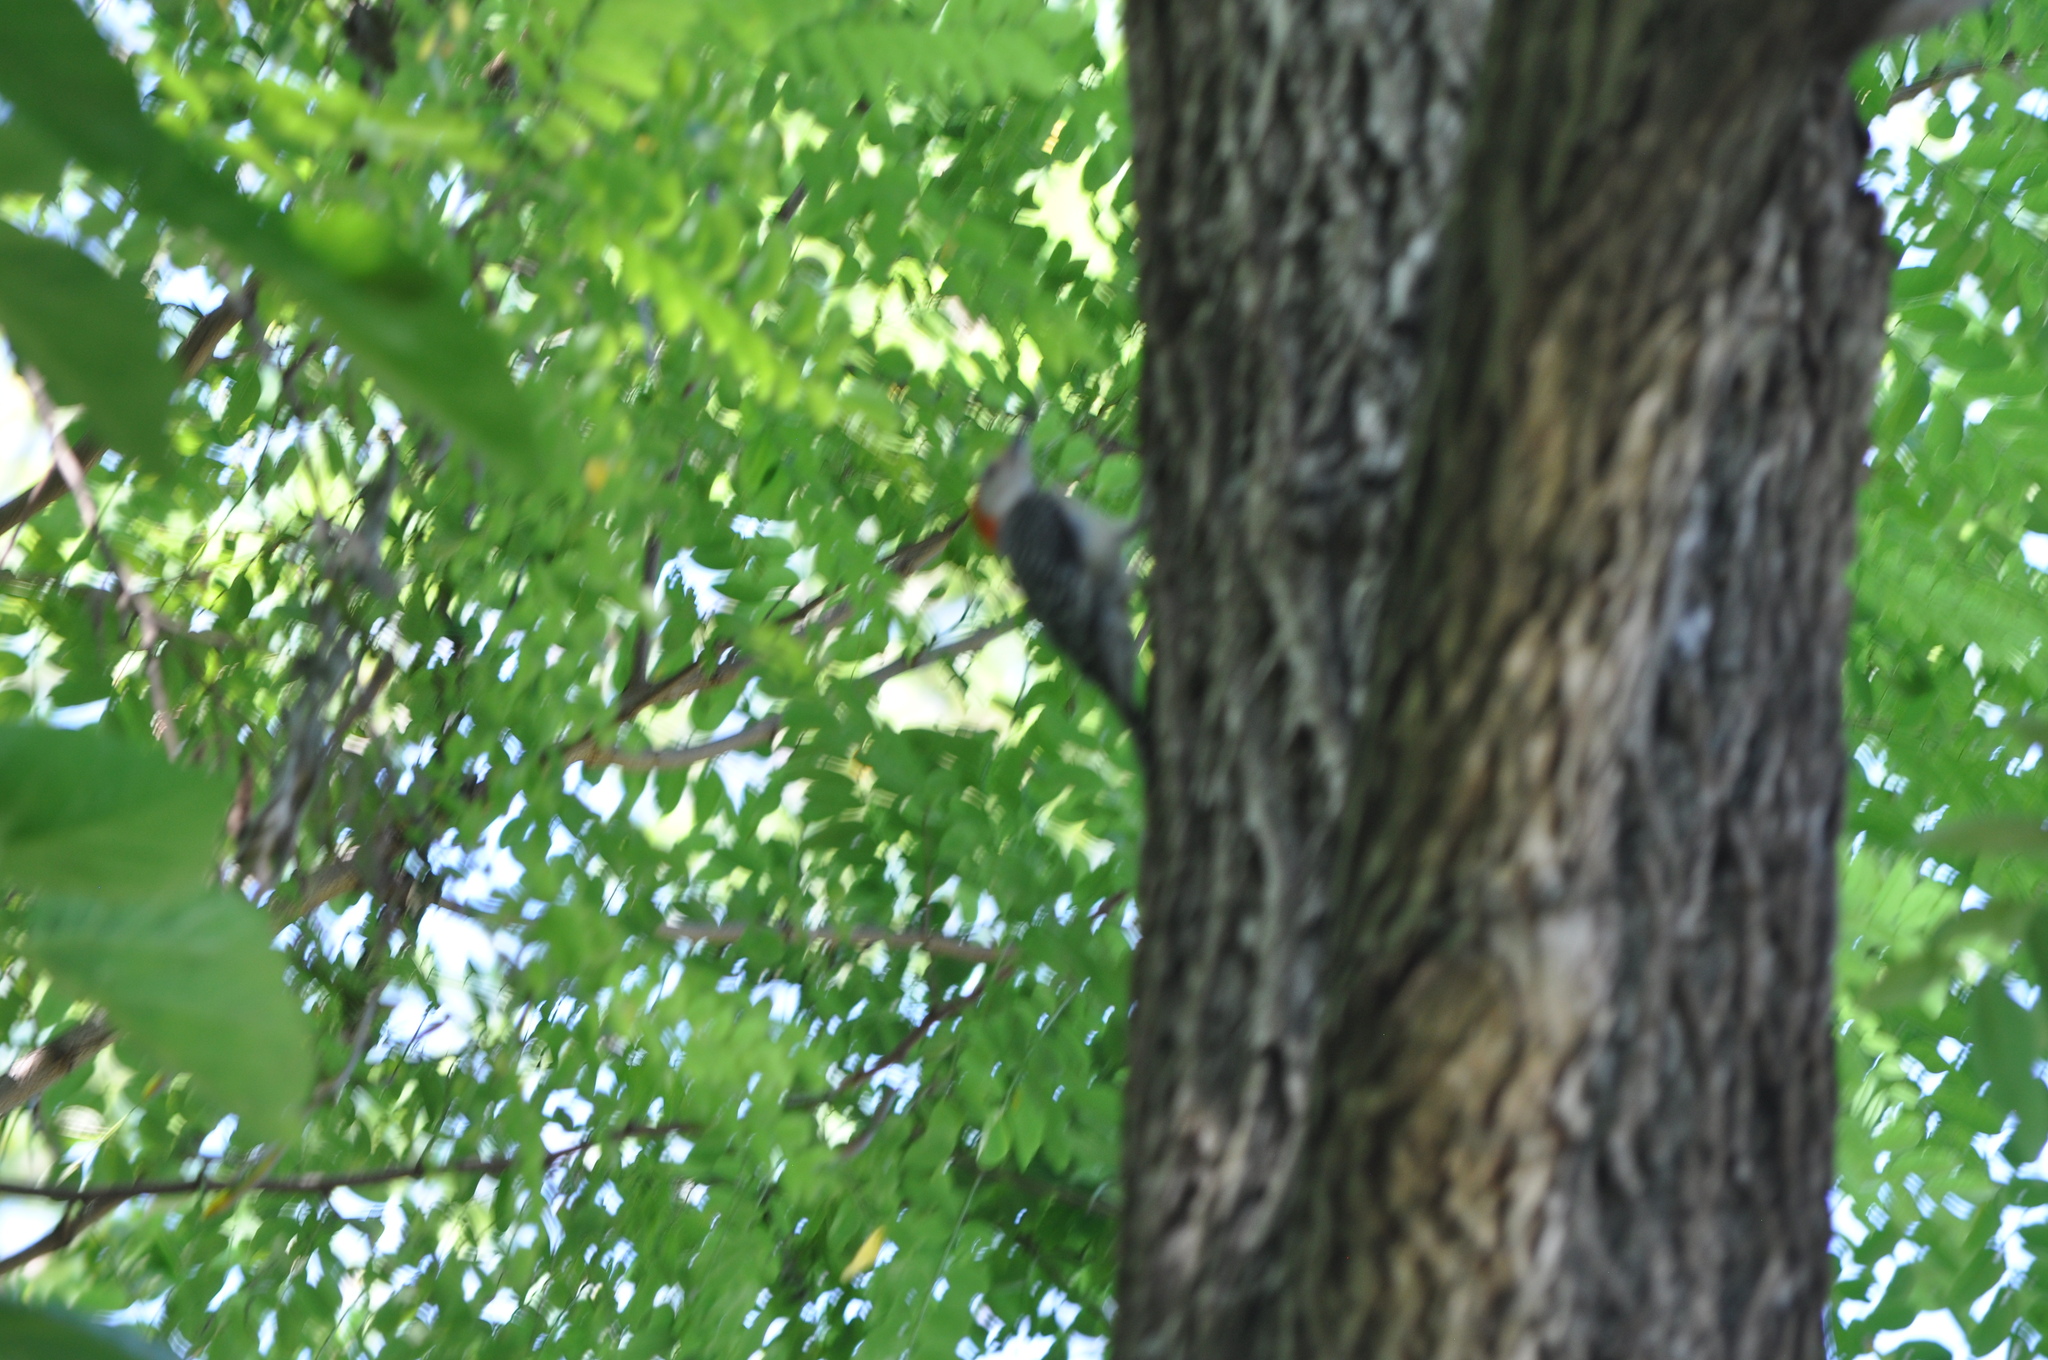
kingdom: Animalia
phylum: Chordata
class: Aves
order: Piciformes
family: Picidae
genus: Melanerpes
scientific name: Melanerpes carolinus
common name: Red-bellied woodpecker
